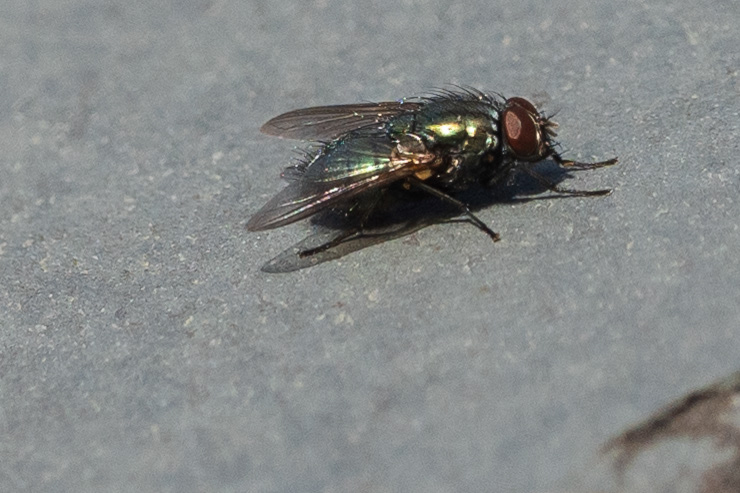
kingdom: Animalia
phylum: Arthropoda
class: Insecta
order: Diptera
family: Muscidae
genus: Dasyphora
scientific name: Dasyphora cyanella
